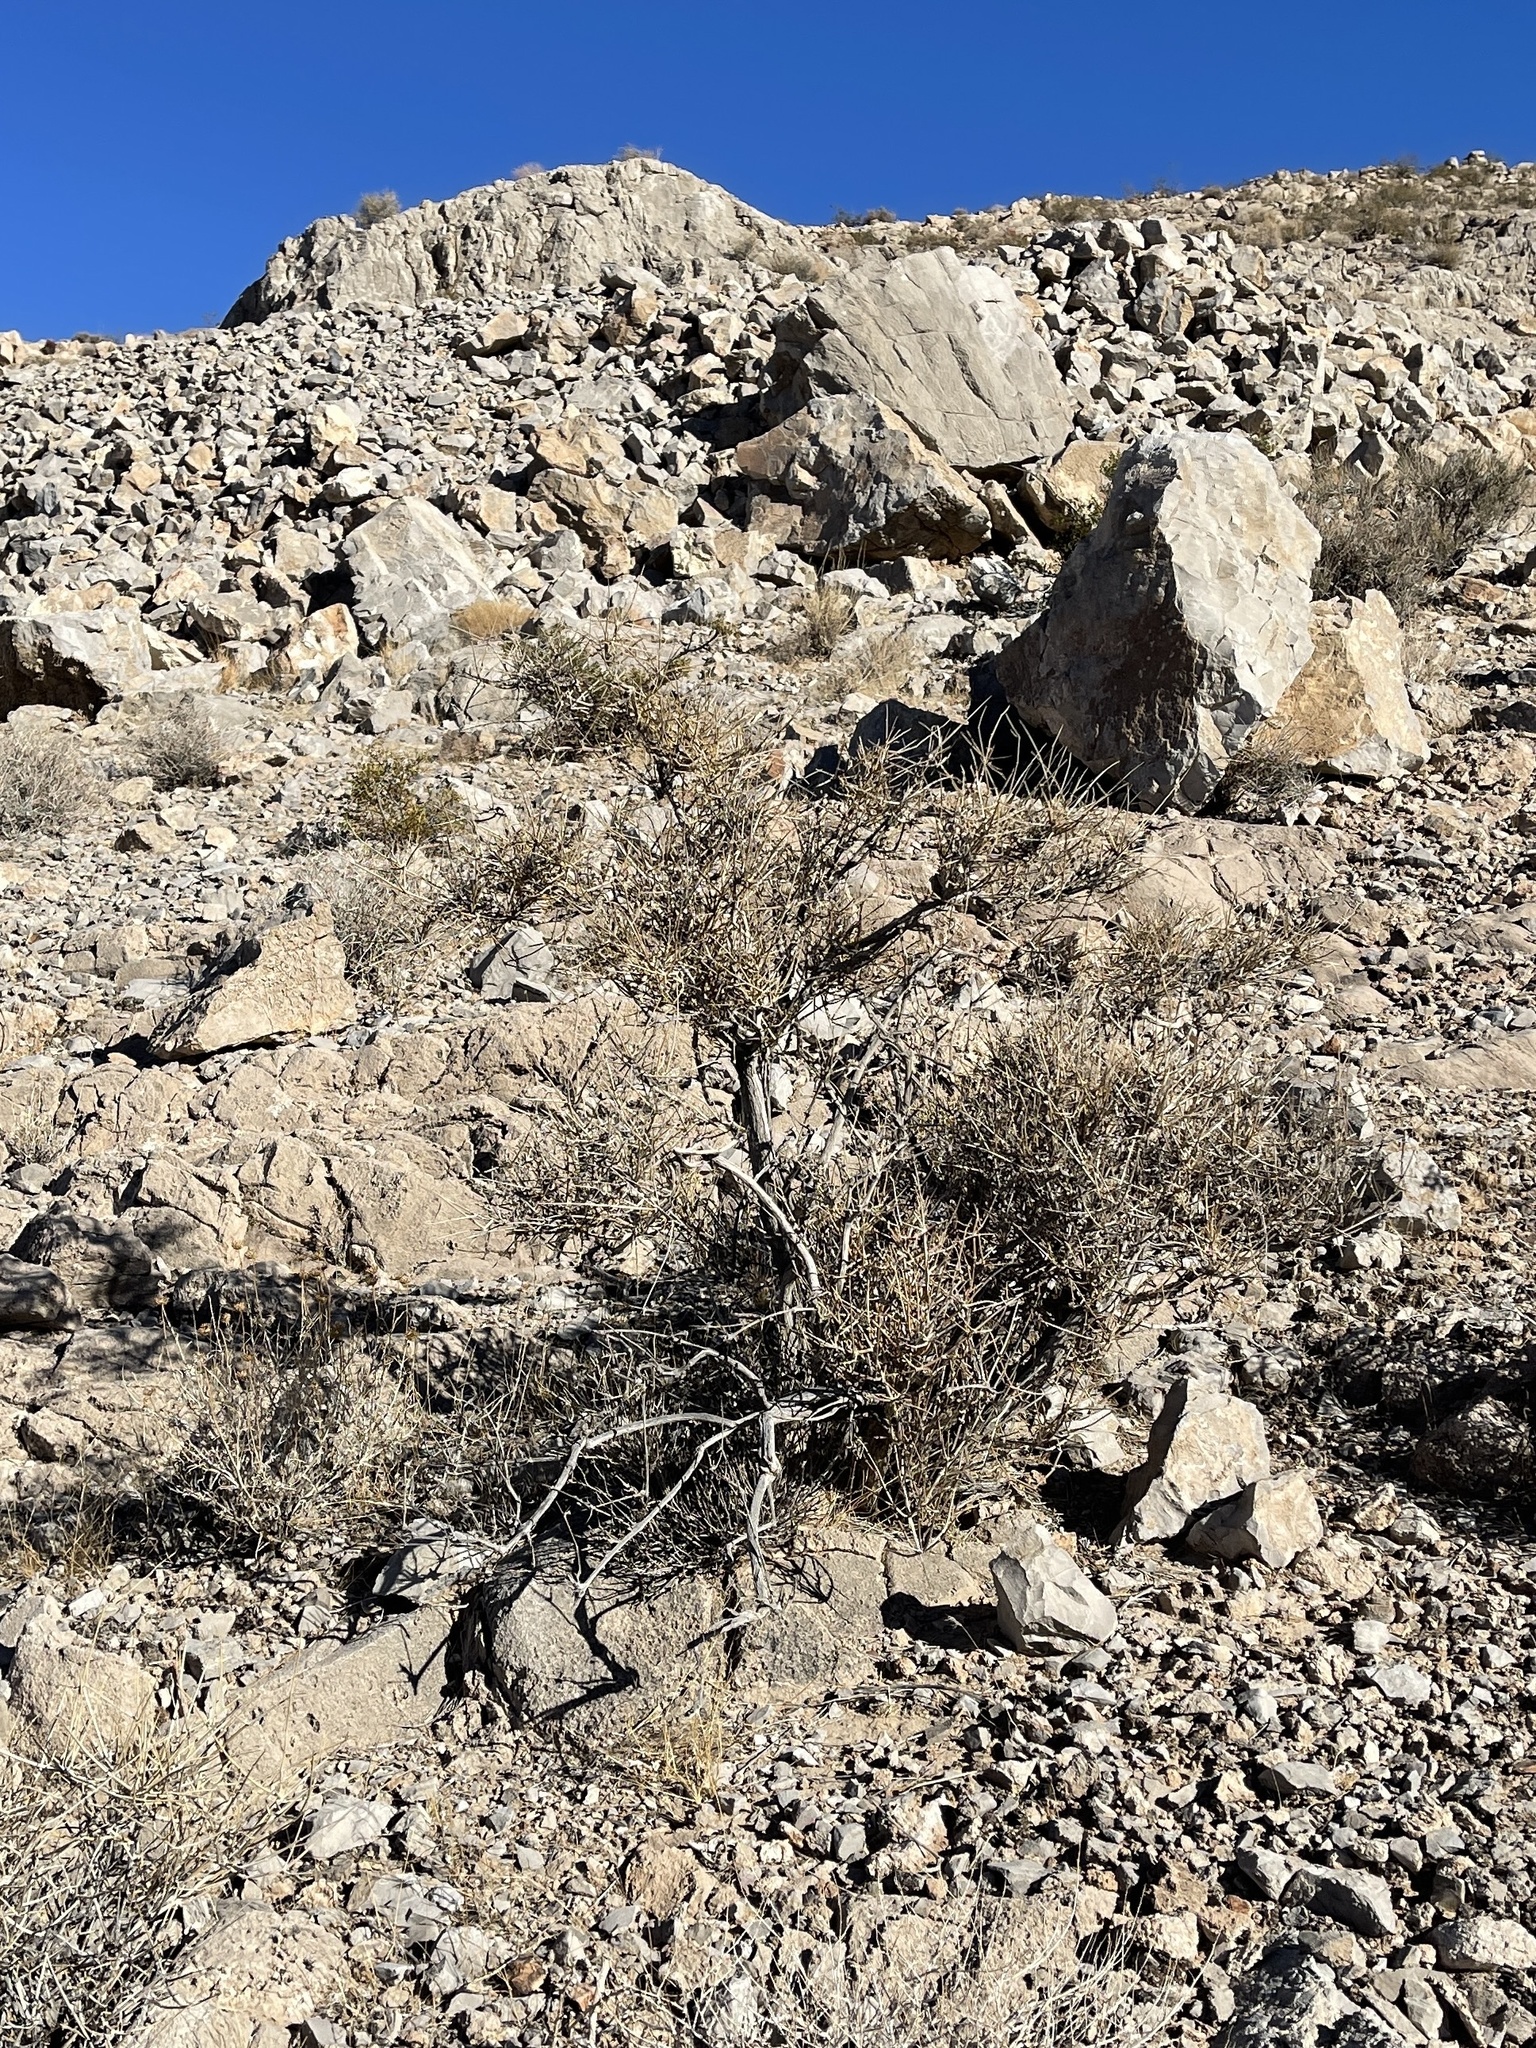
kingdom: Plantae
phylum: Tracheophyta
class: Gnetopsida
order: Ephedrales
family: Ephedraceae
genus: Ephedra
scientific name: Ephedra nevadensis
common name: Gray ephedra
